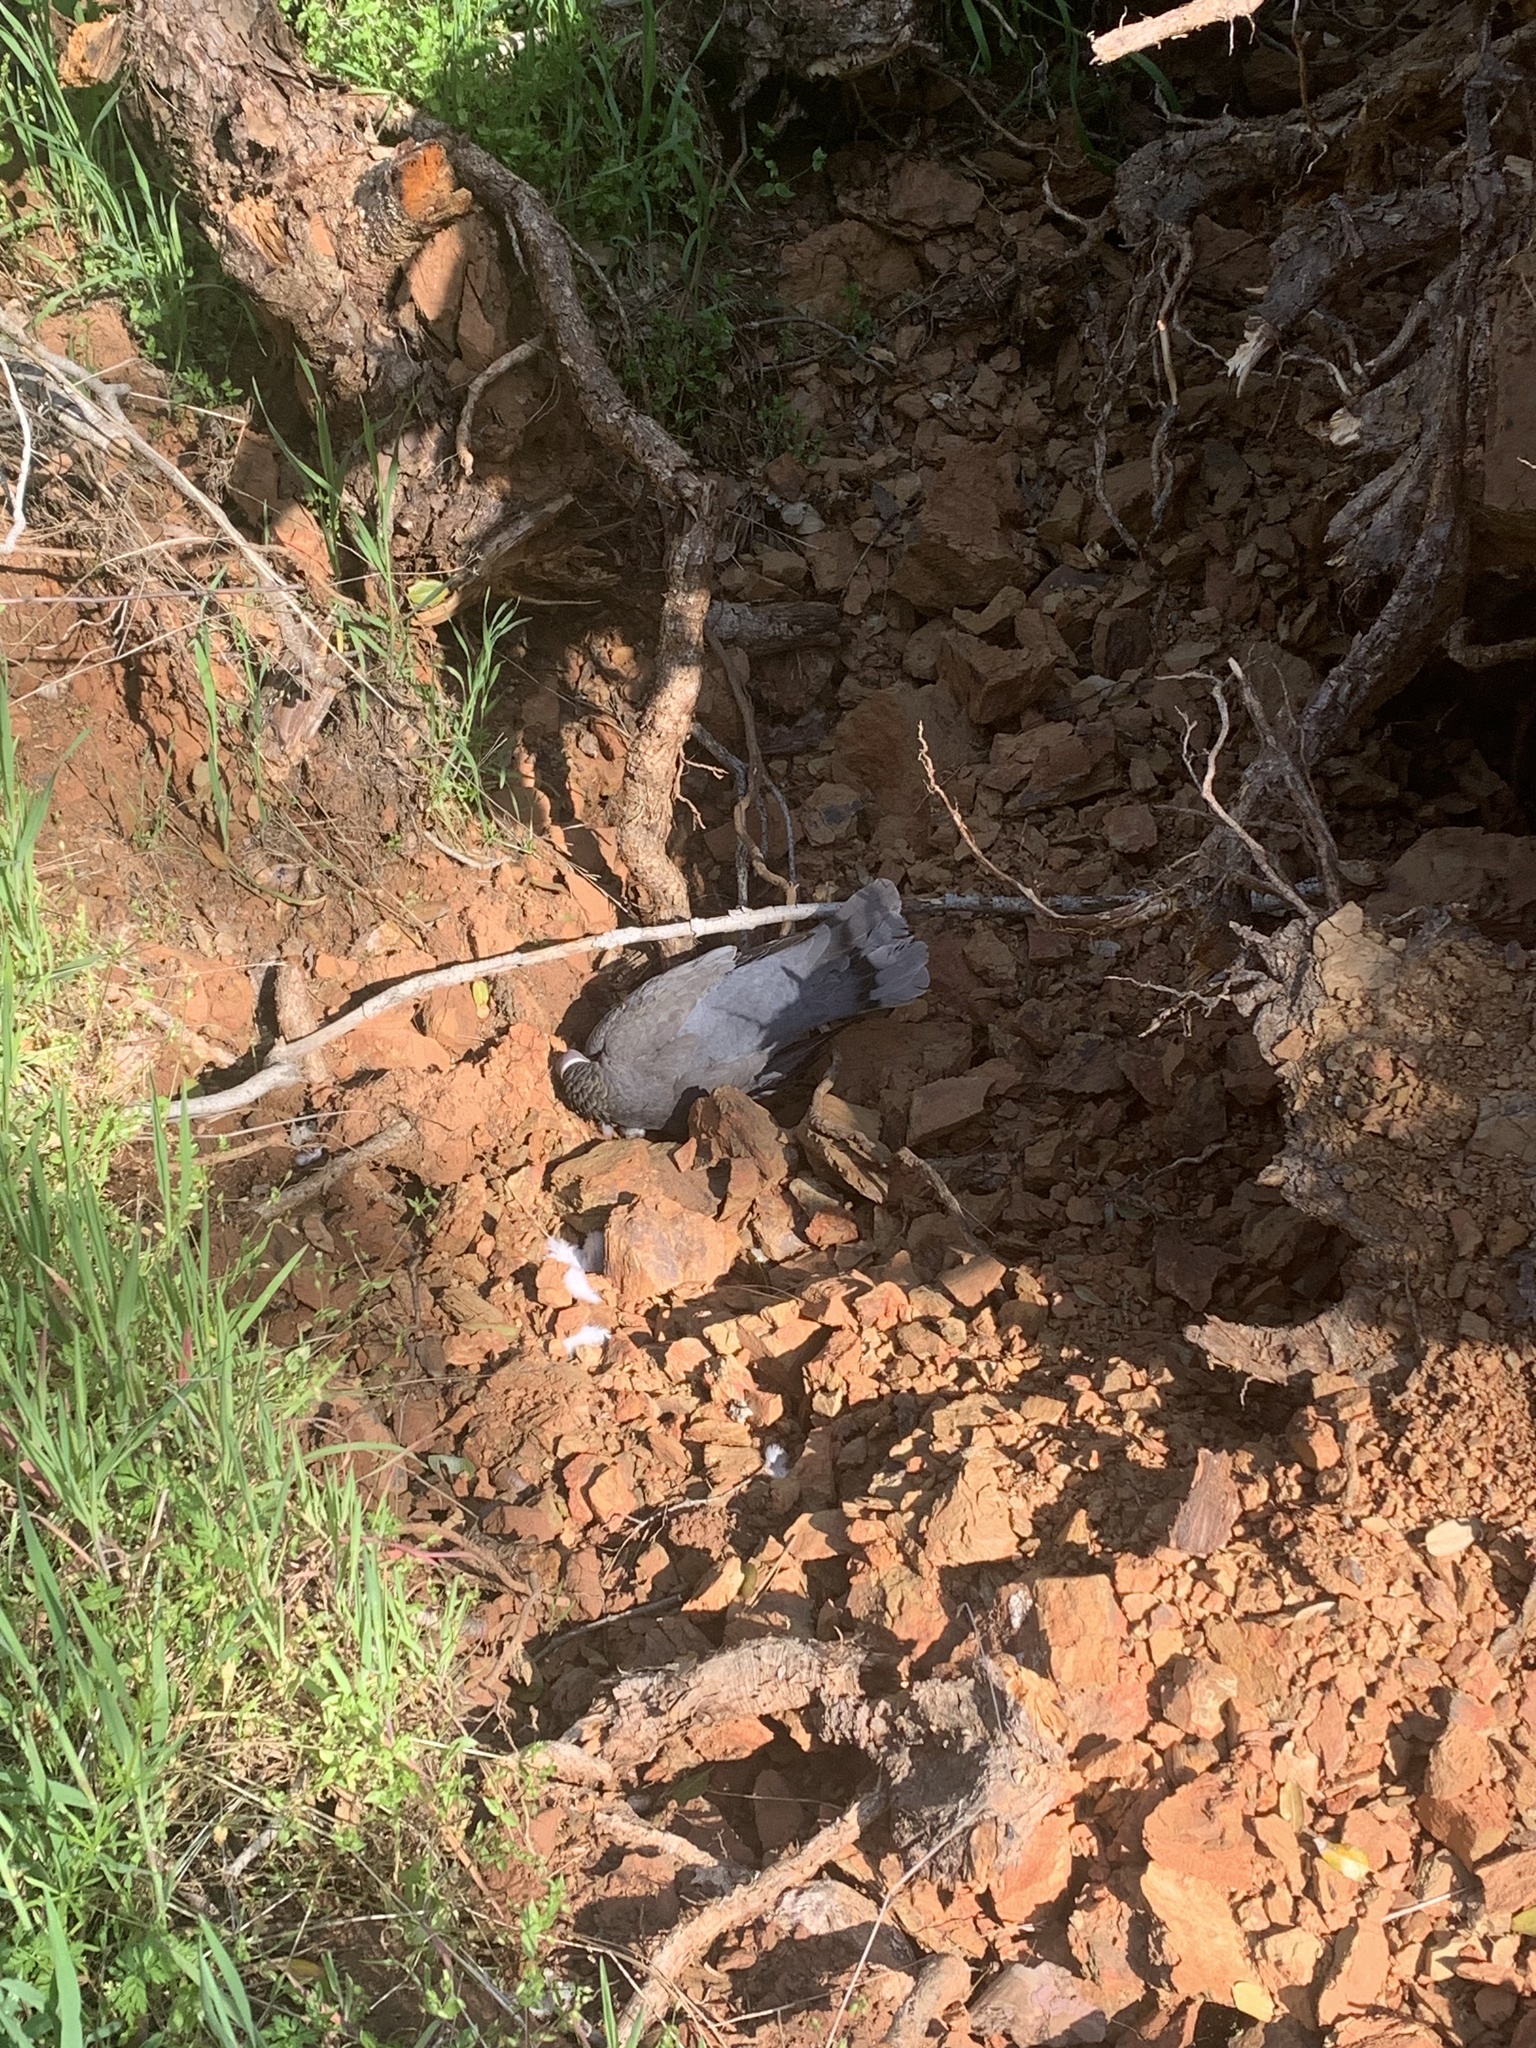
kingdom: Animalia
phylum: Chordata
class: Aves
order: Columbiformes
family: Columbidae
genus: Patagioenas
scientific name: Patagioenas fasciata
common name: Band-tailed pigeon
